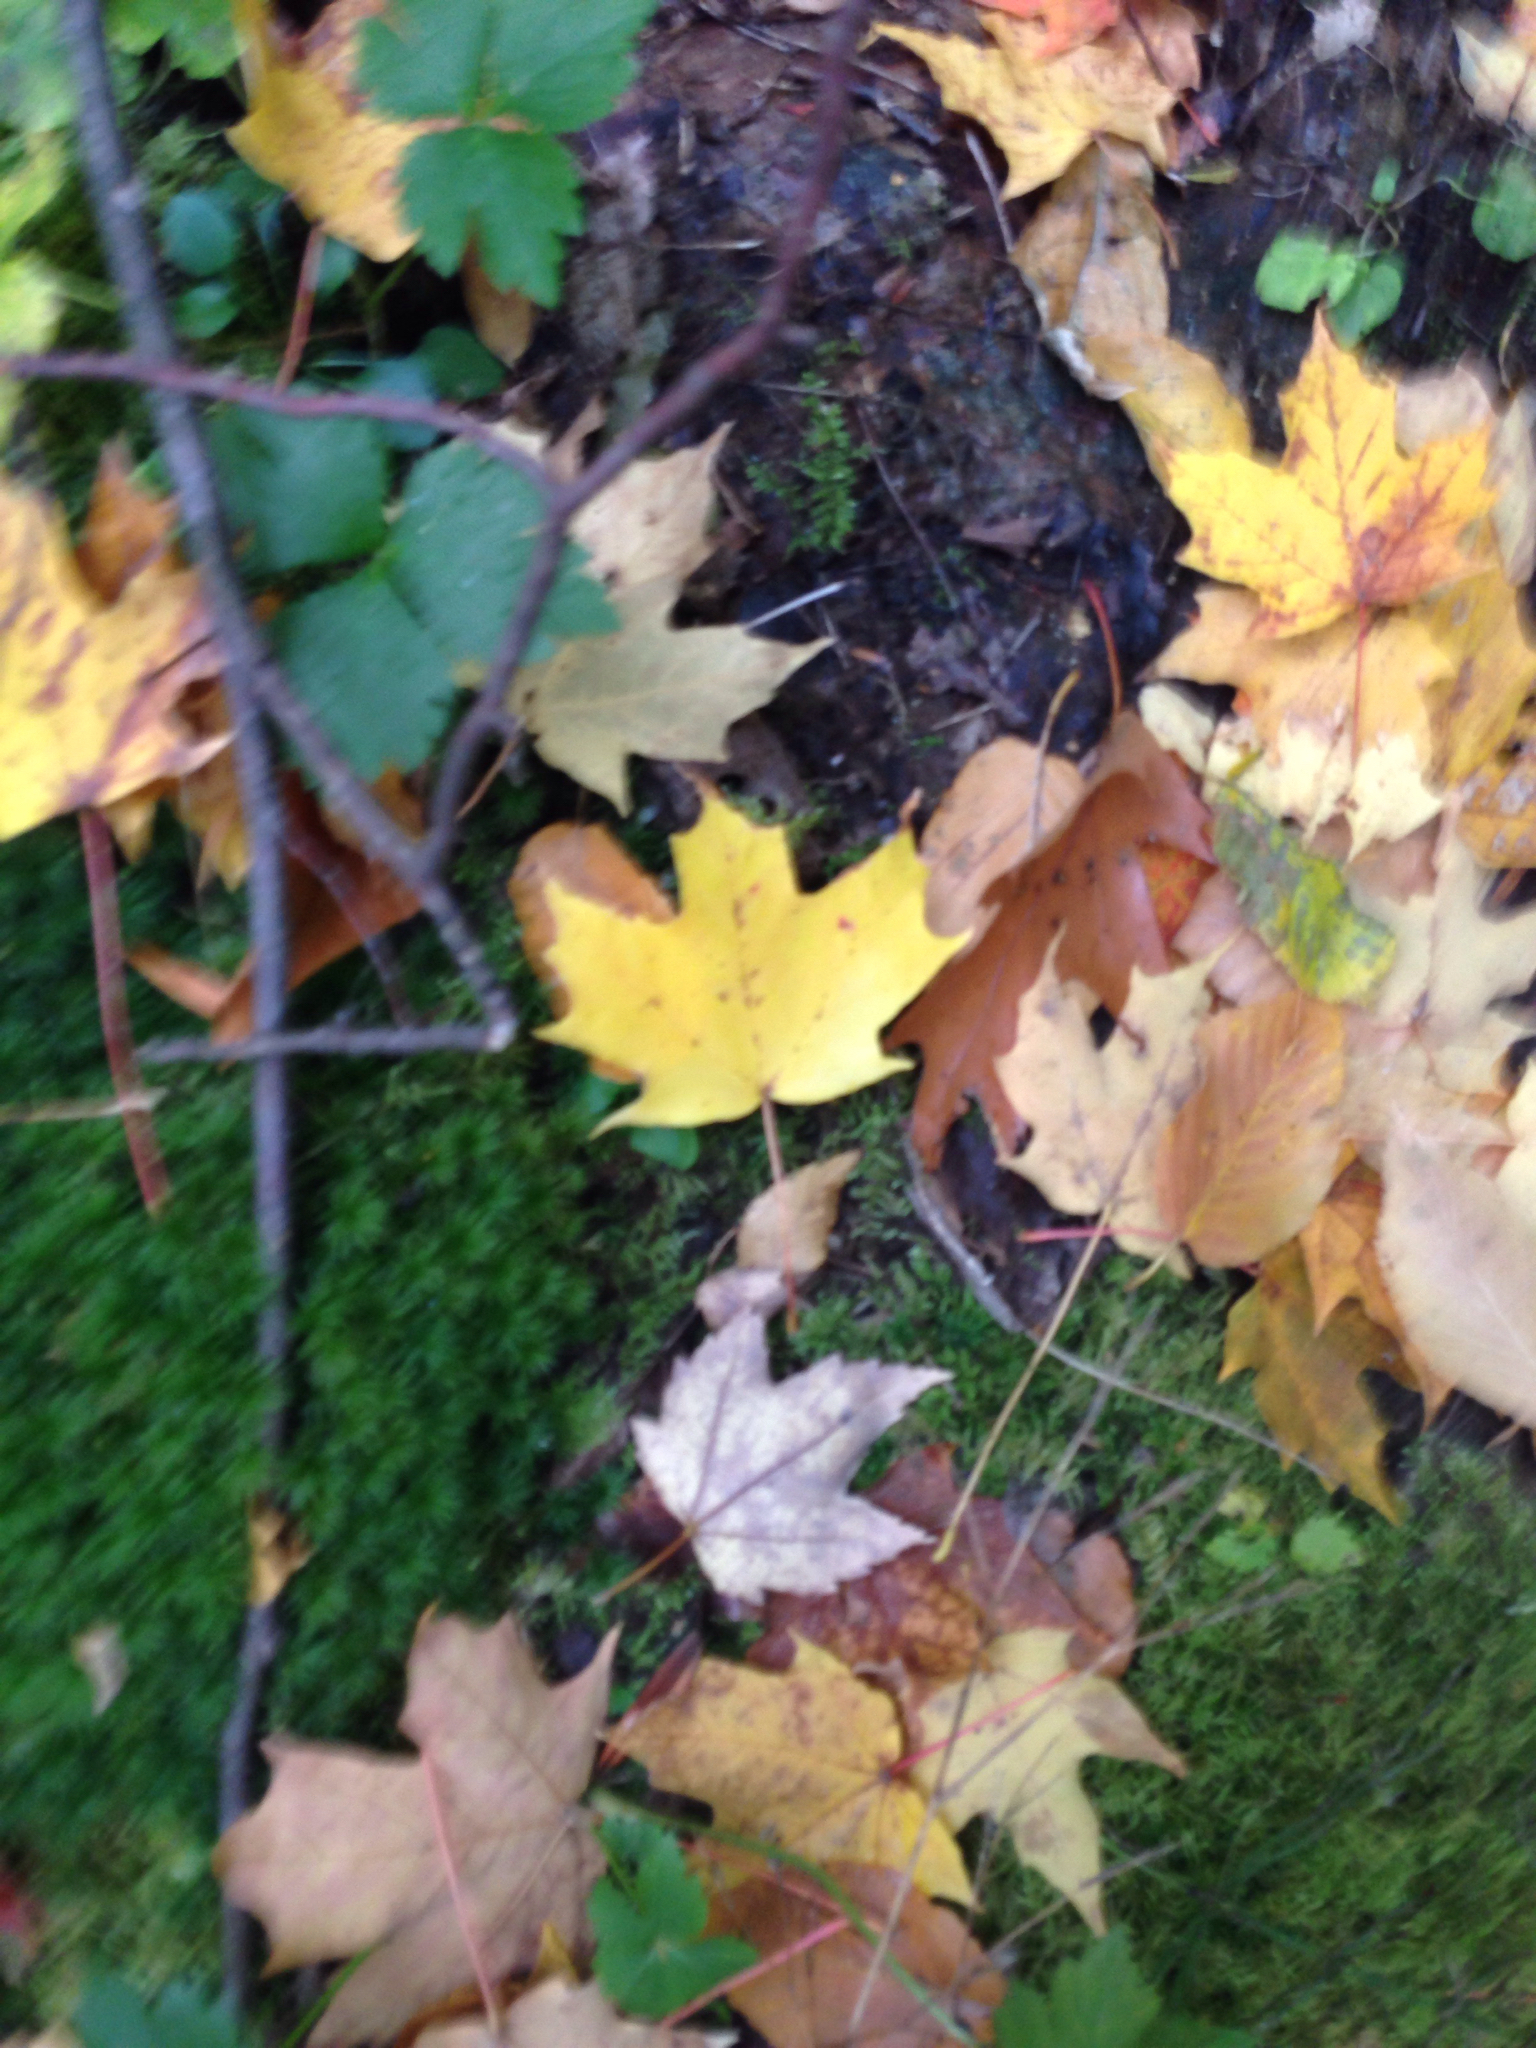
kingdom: Plantae
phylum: Tracheophyta
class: Magnoliopsida
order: Sapindales
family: Sapindaceae
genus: Acer
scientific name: Acer saccharum
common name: Sugar maple
